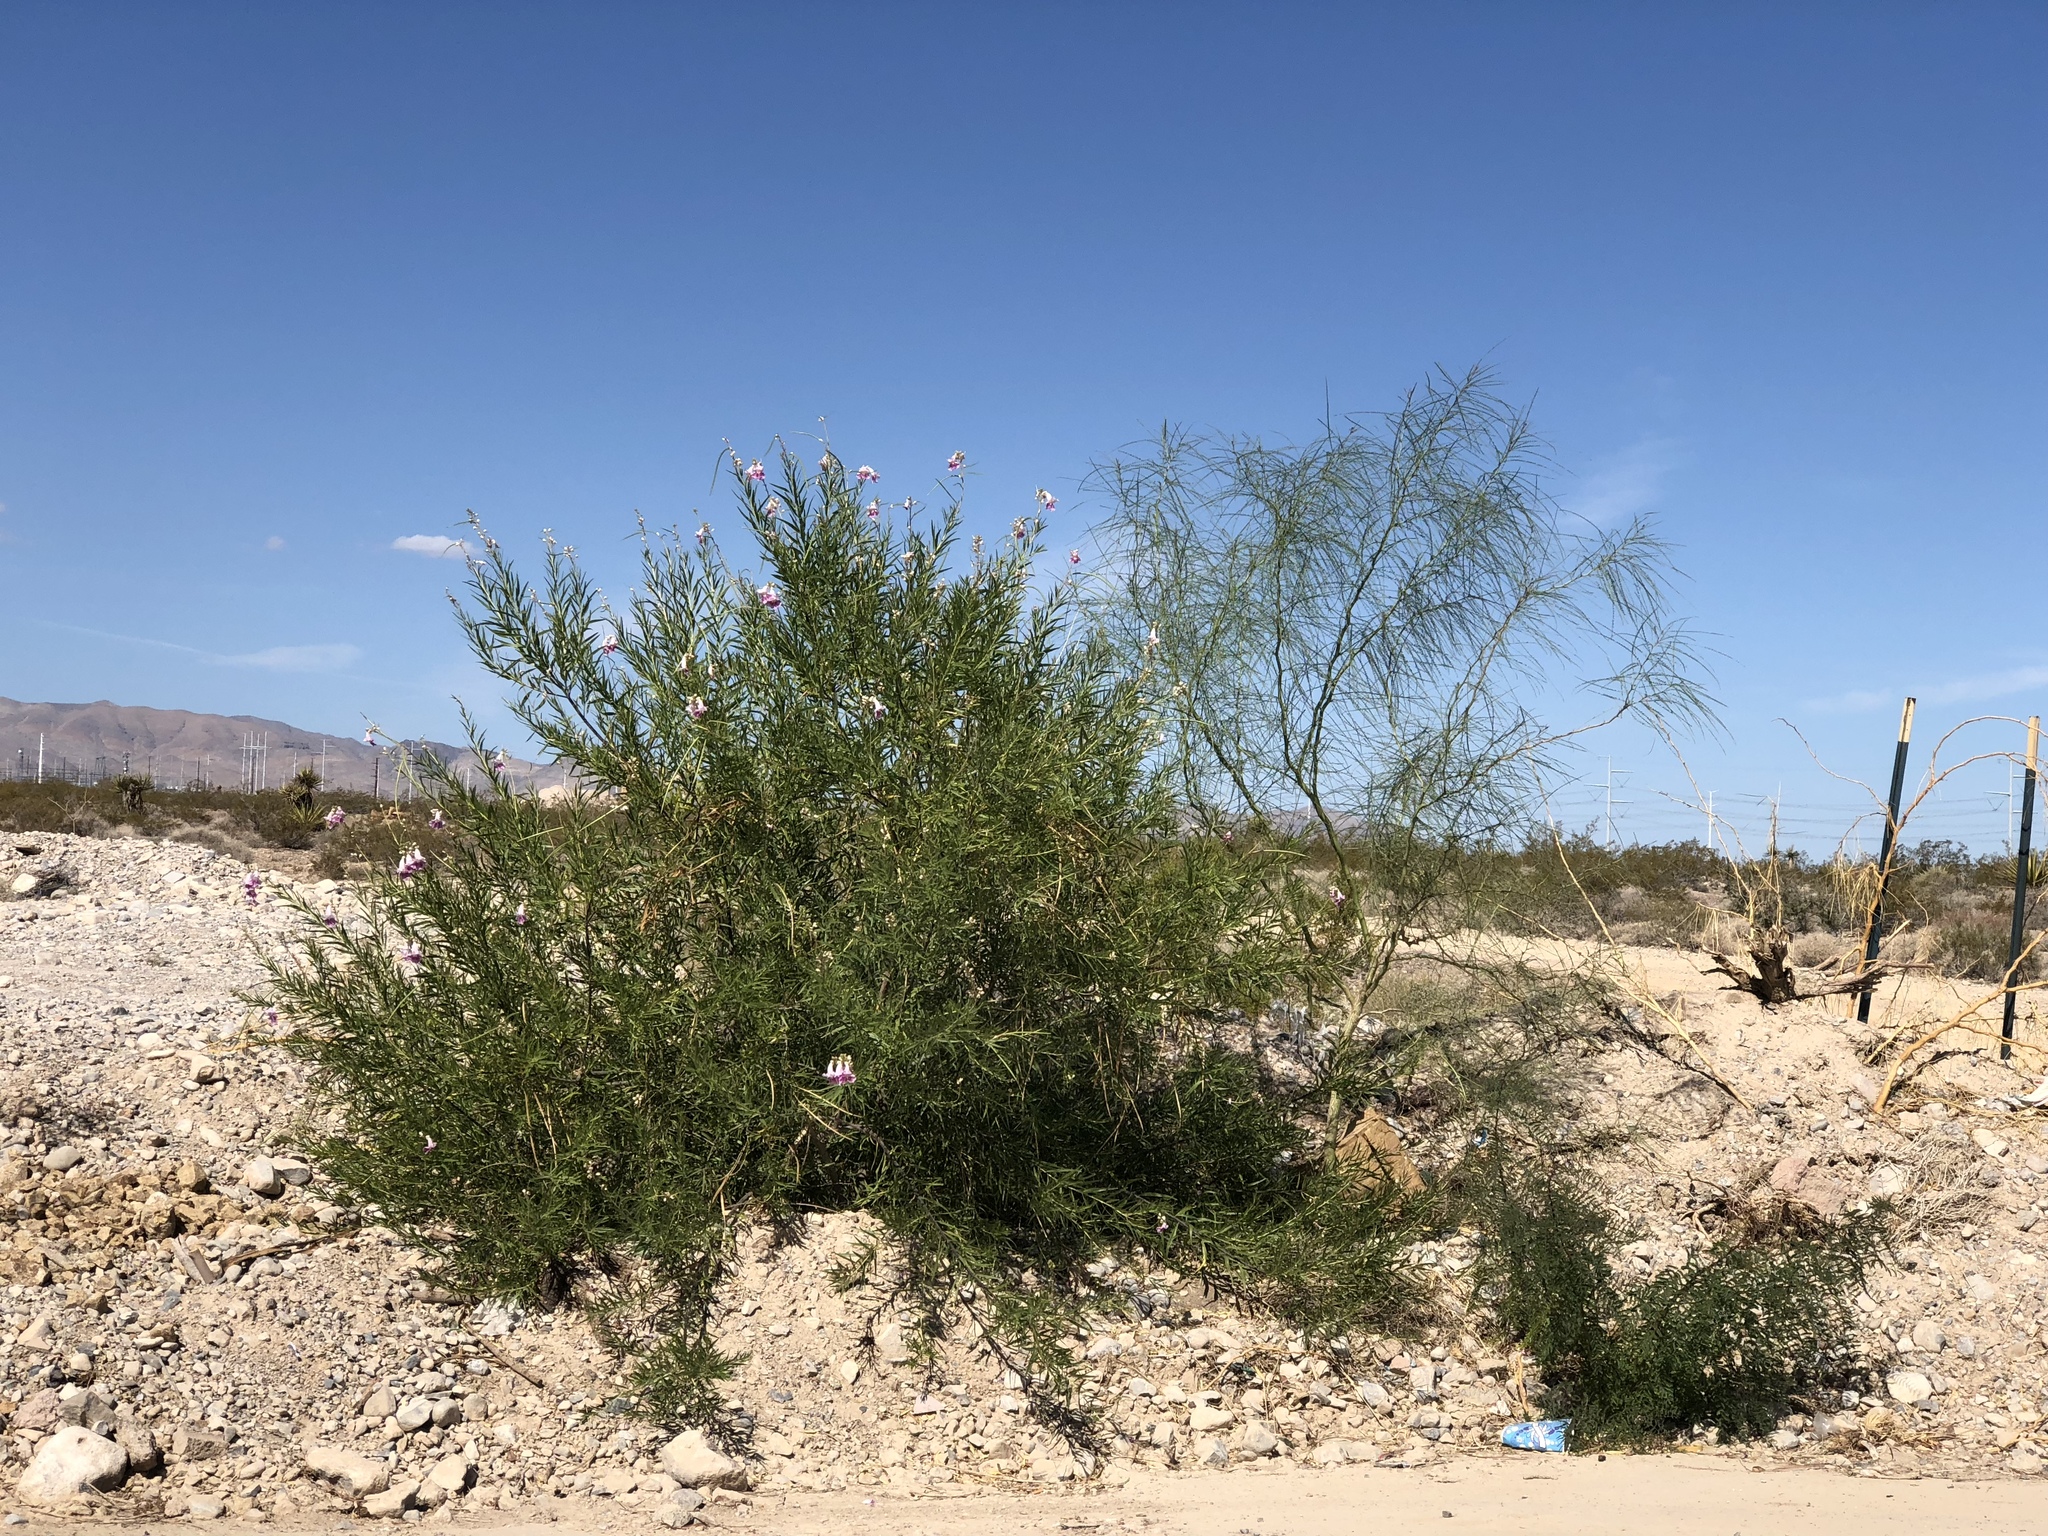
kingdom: Plantae
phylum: Tracheophyta
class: Magnoliopsida
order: Lamiales
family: Bignoniaceae
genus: Chilopsis
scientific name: Chilopsis linearis
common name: Desert-willow
